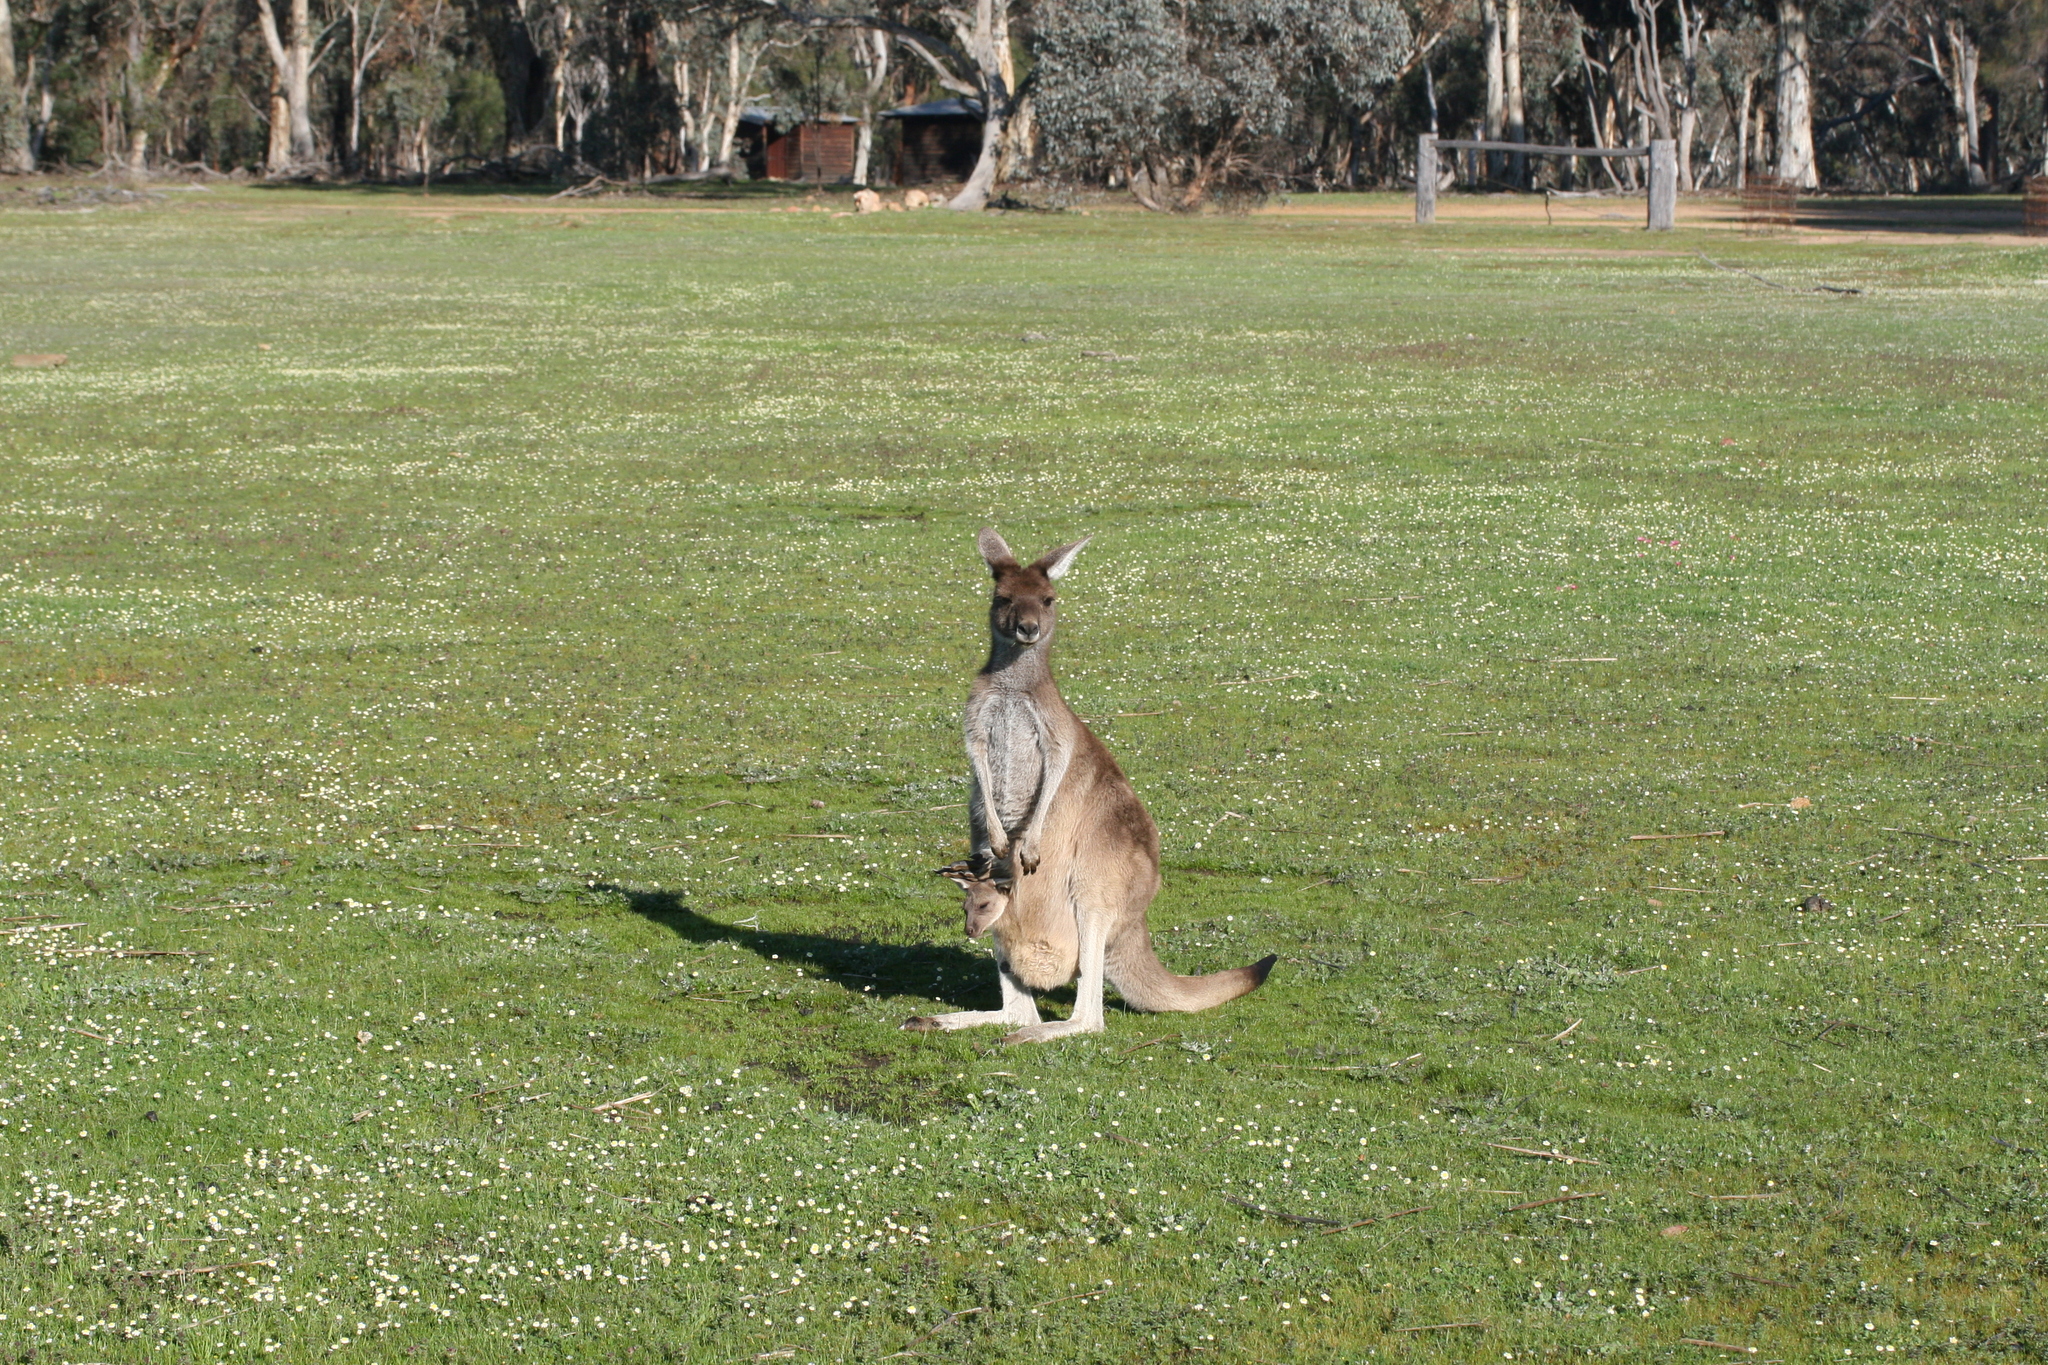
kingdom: Animalia
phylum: Chordata
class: Mammalia
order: Diprotodontia
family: Macropodidae
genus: Macropus
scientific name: Macropus fuliginosus
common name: Western grey kangaroo
